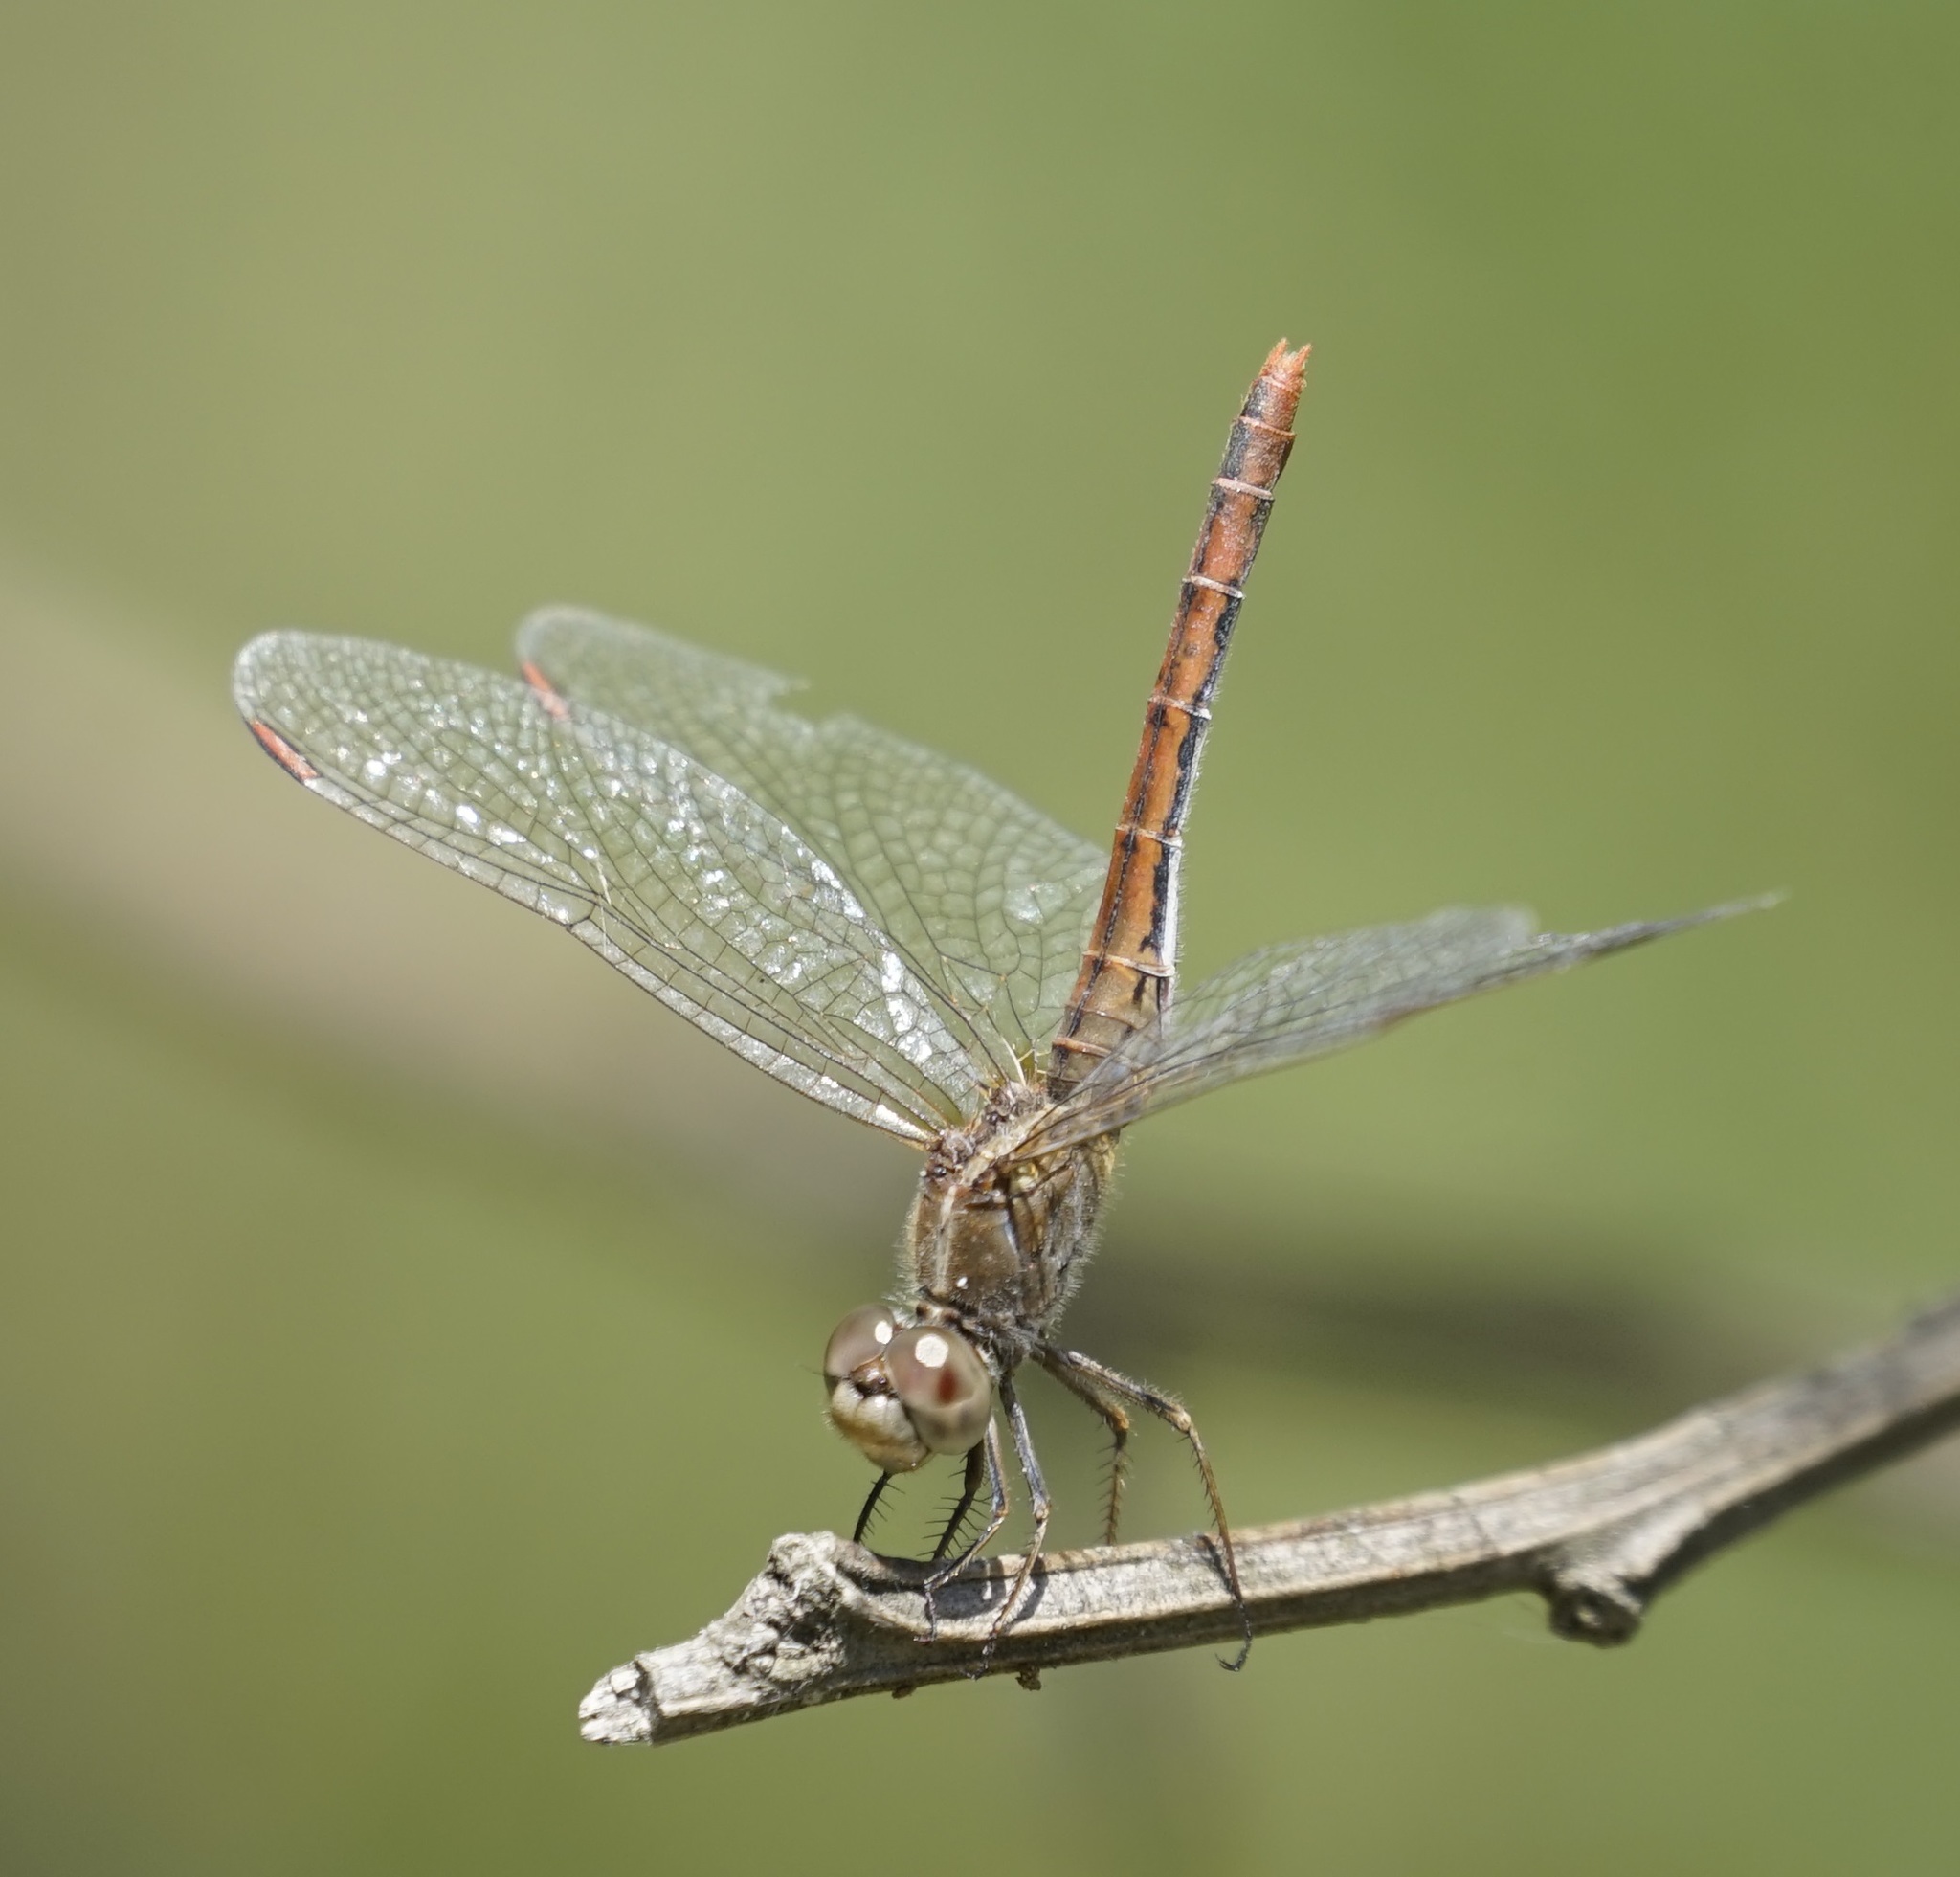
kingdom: Animalia
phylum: Arthropoda
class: Insecta
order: Odonata
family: Libellulidae
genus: Diplacodes
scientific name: Diplacodes bipunctata
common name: Red percher dragonfly
